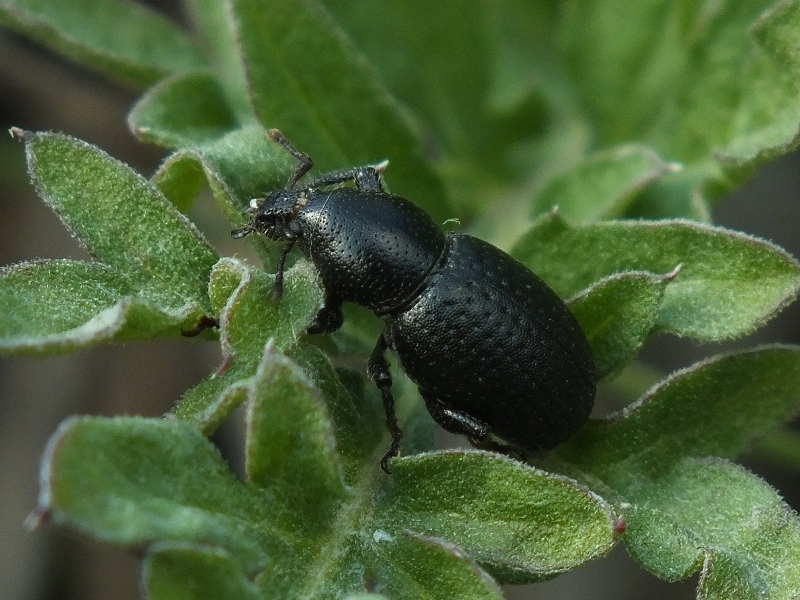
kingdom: Animalia
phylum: Arthropoda
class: Insecta
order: Coleoptera
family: Curculionidae
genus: Psallidium
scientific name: Psallidium maxillosum
